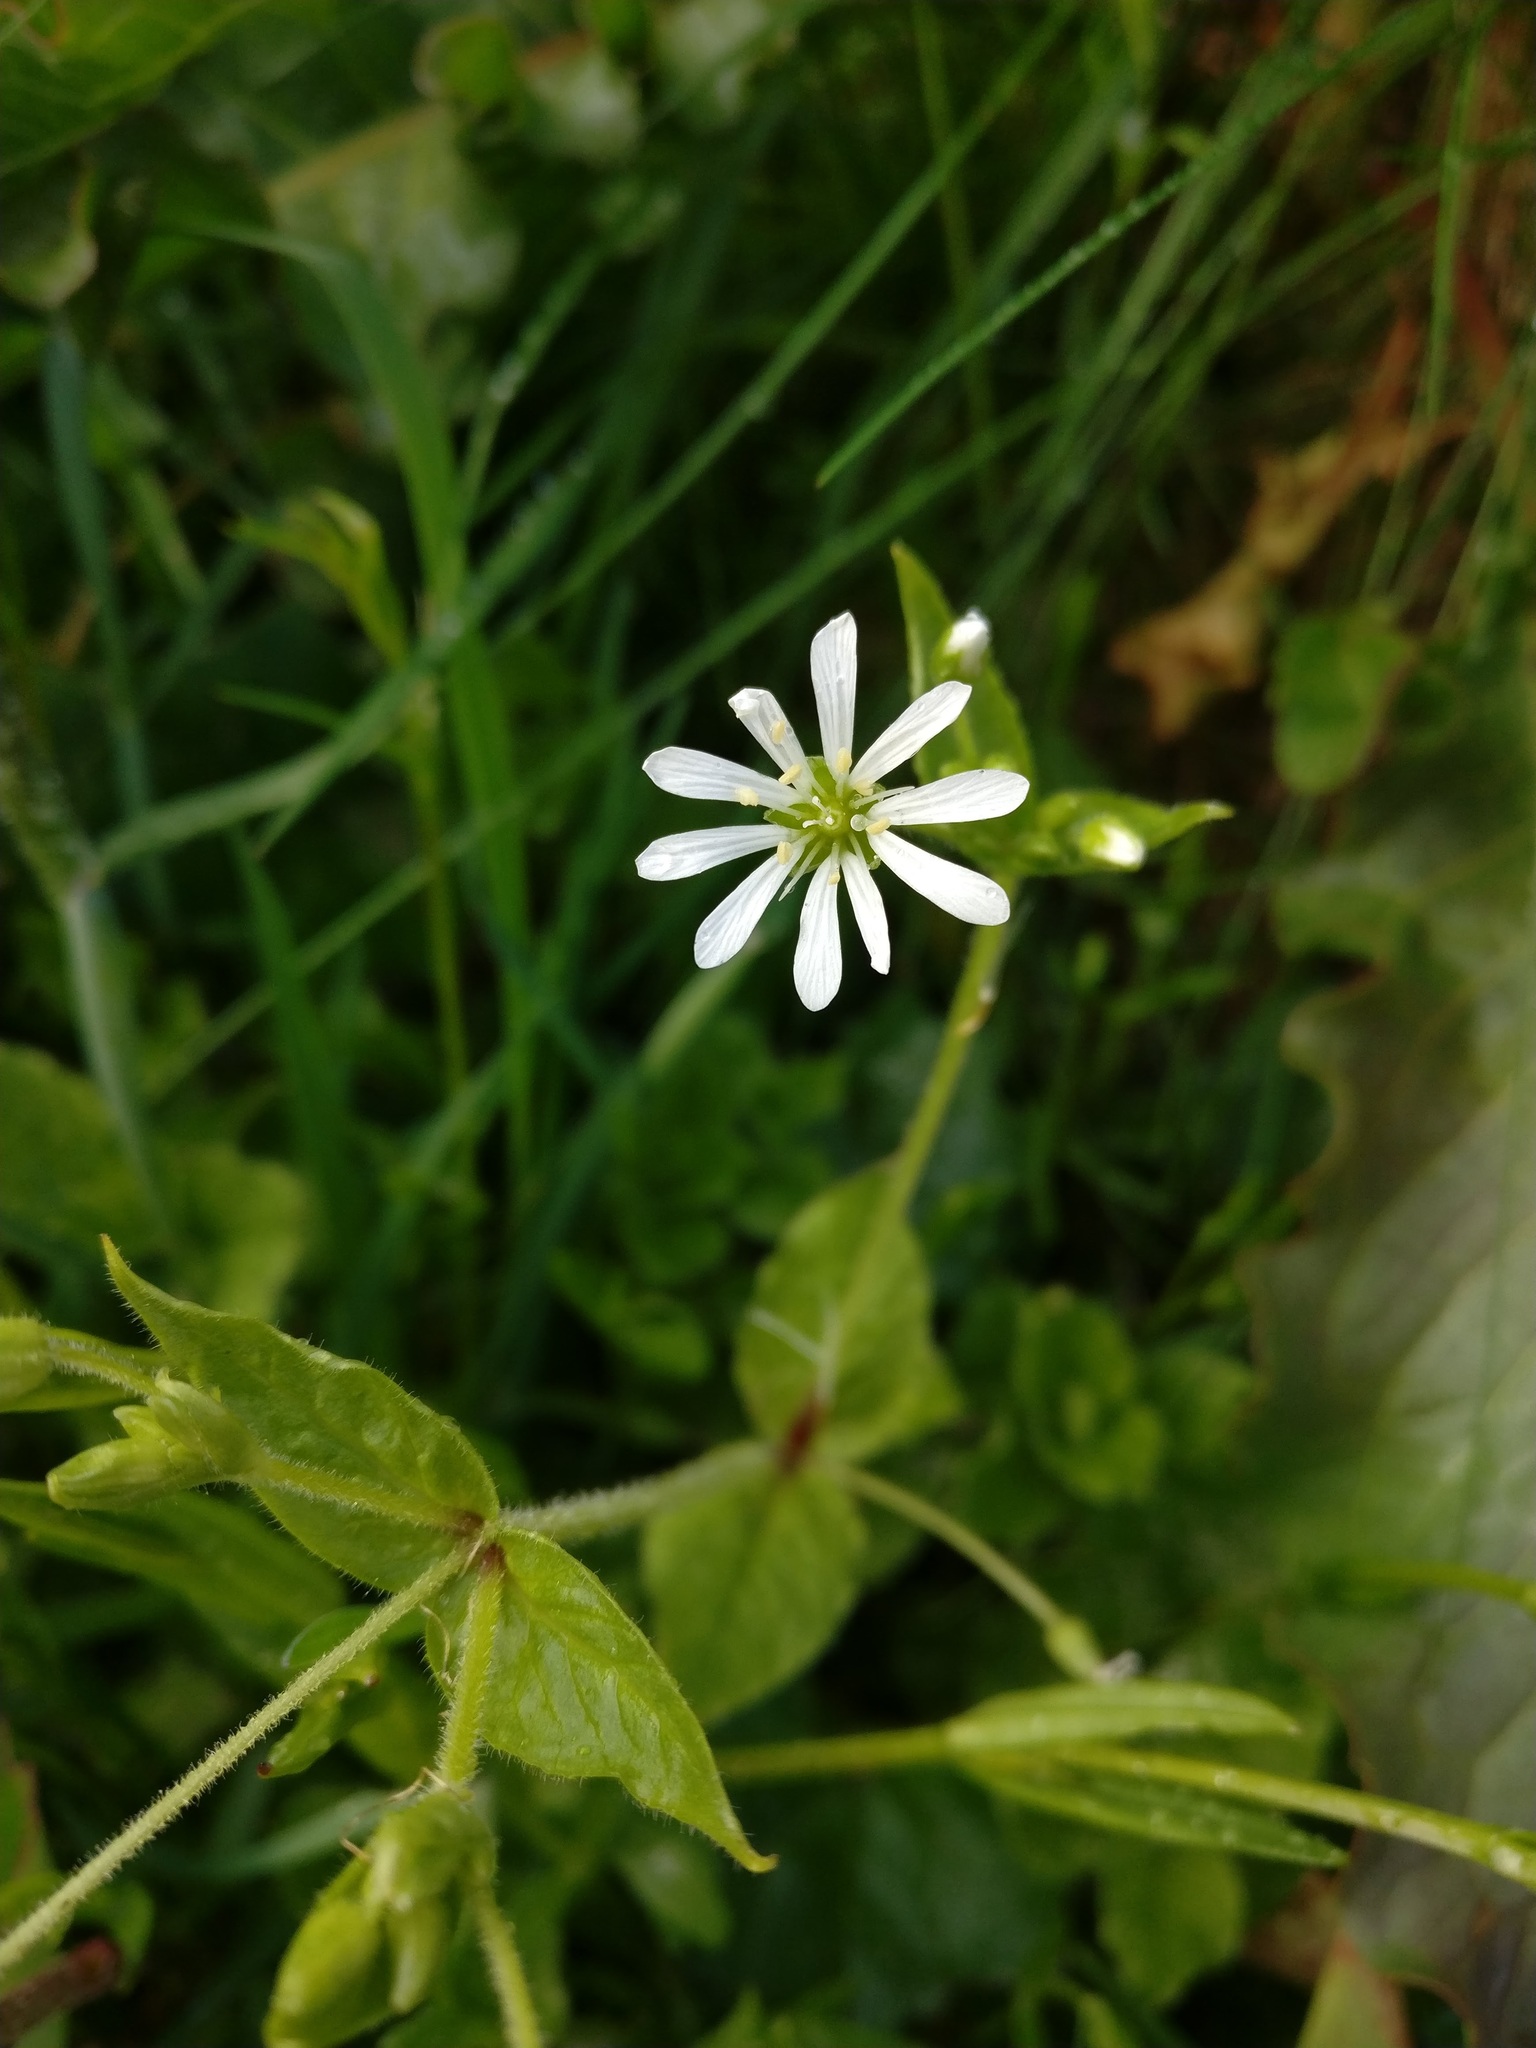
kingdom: Plantae
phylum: Tracheophyta
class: Magnoliopsida
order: Caryophyllales
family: Caryophyllaceae
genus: Stellaria
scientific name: Stellaria nemorum
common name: Wood stitchwort
